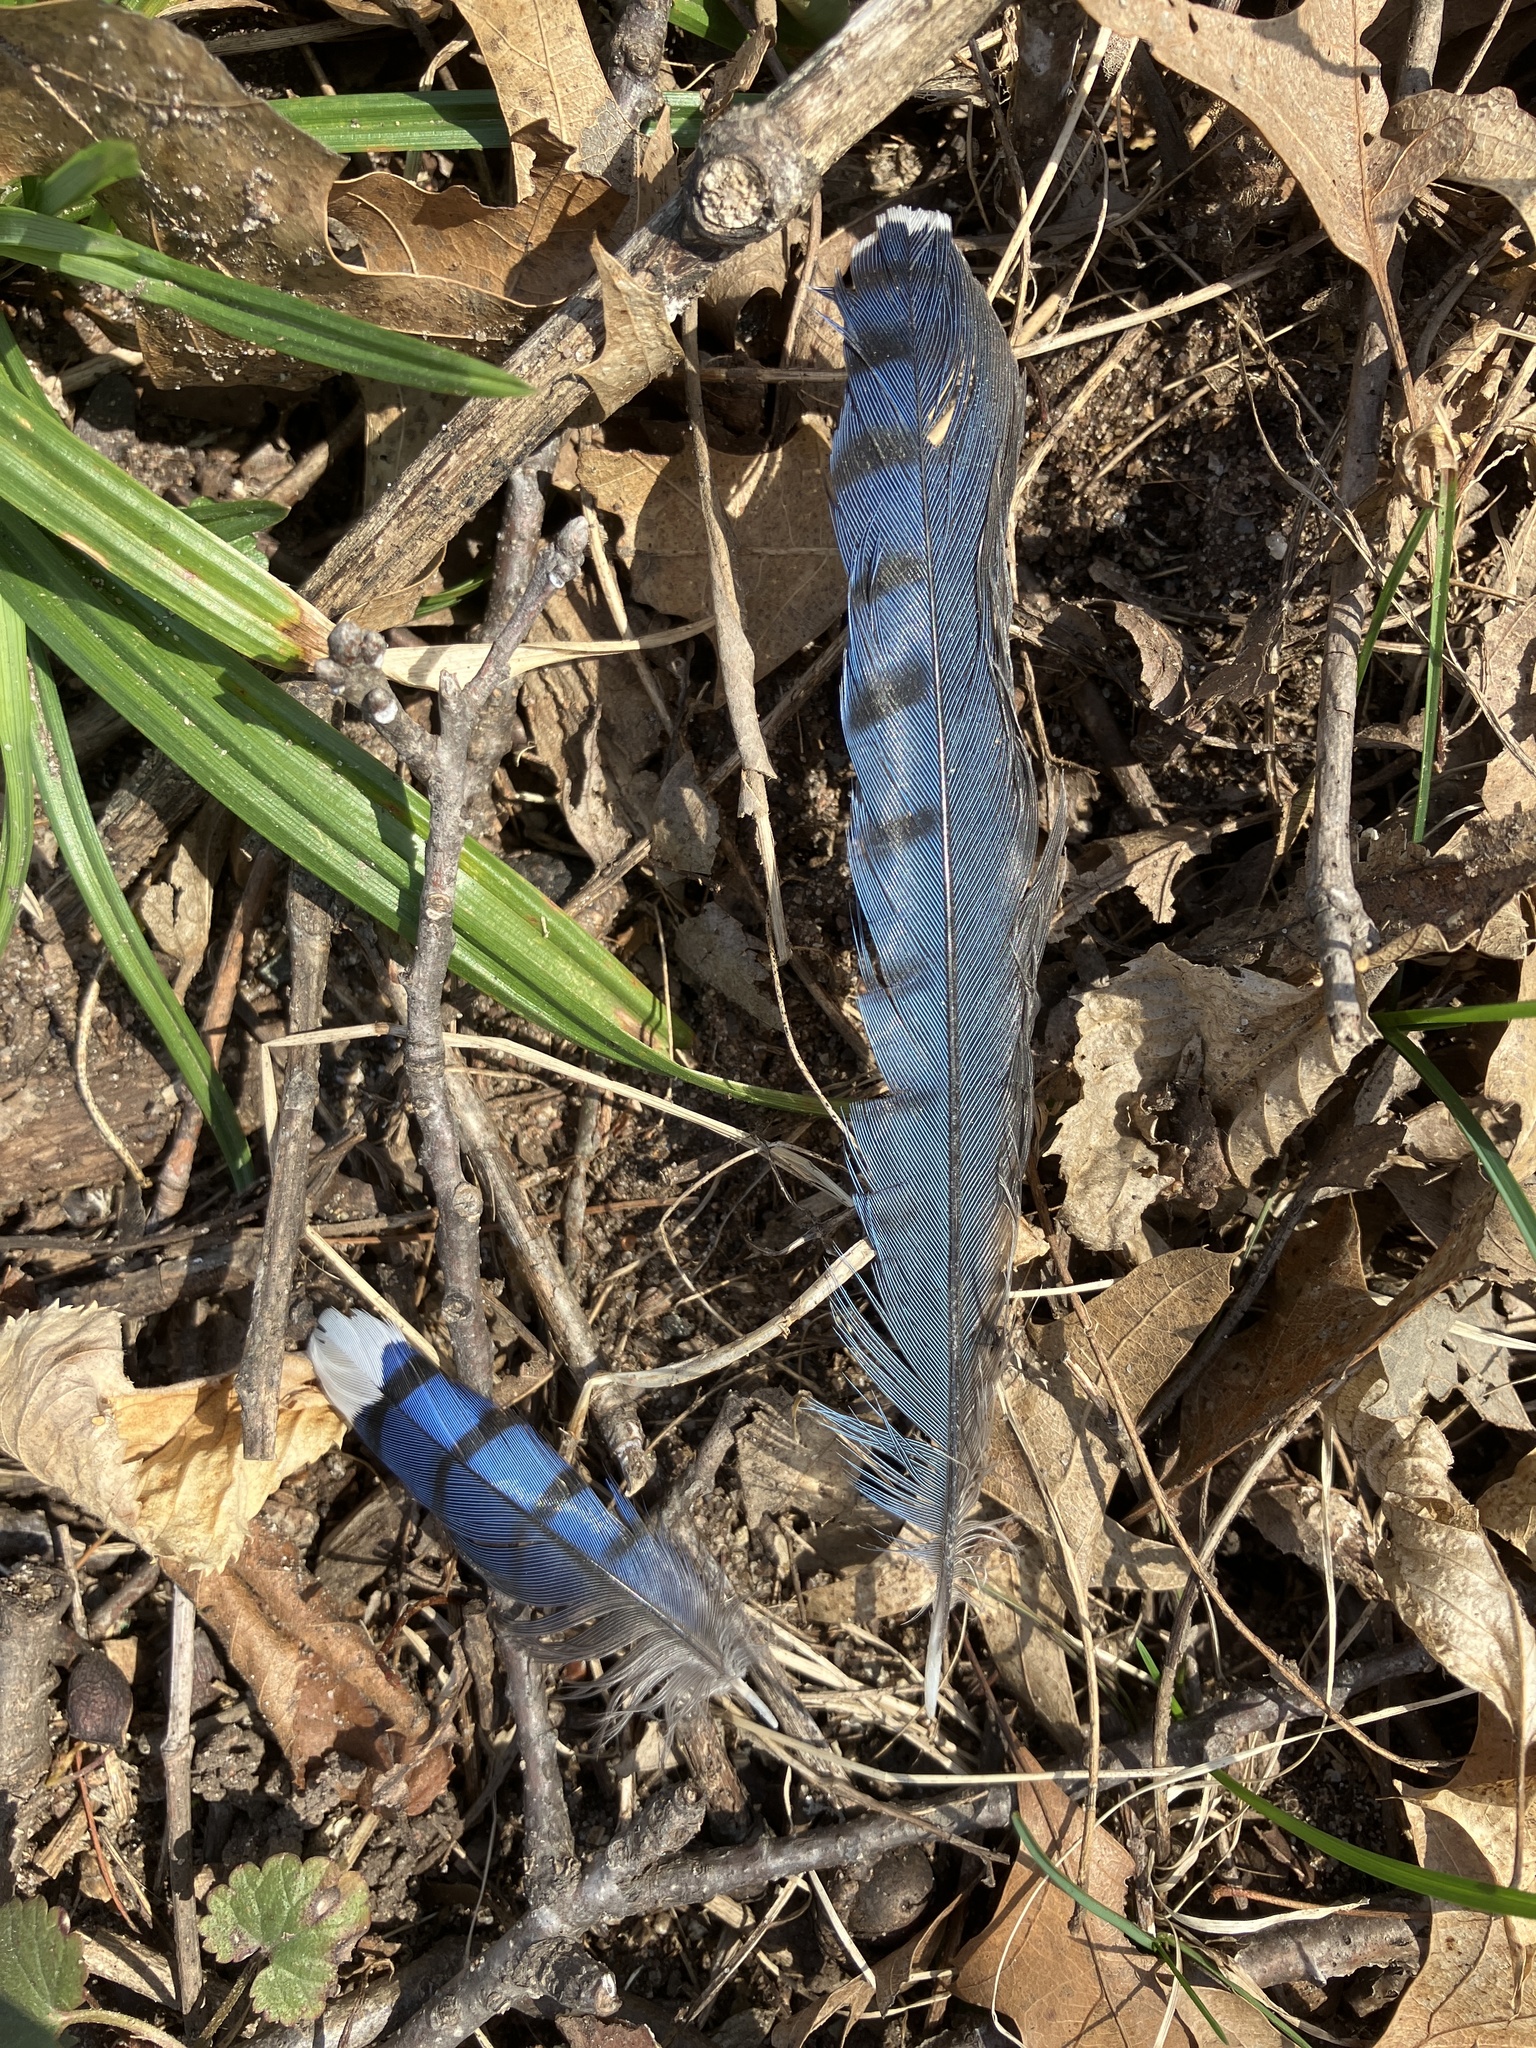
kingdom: Animalia
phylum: Chordata
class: Aves
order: Passeriformes
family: Corvidae
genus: Cyanocitta
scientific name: Cyanocitta cristata
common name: Blue jay
